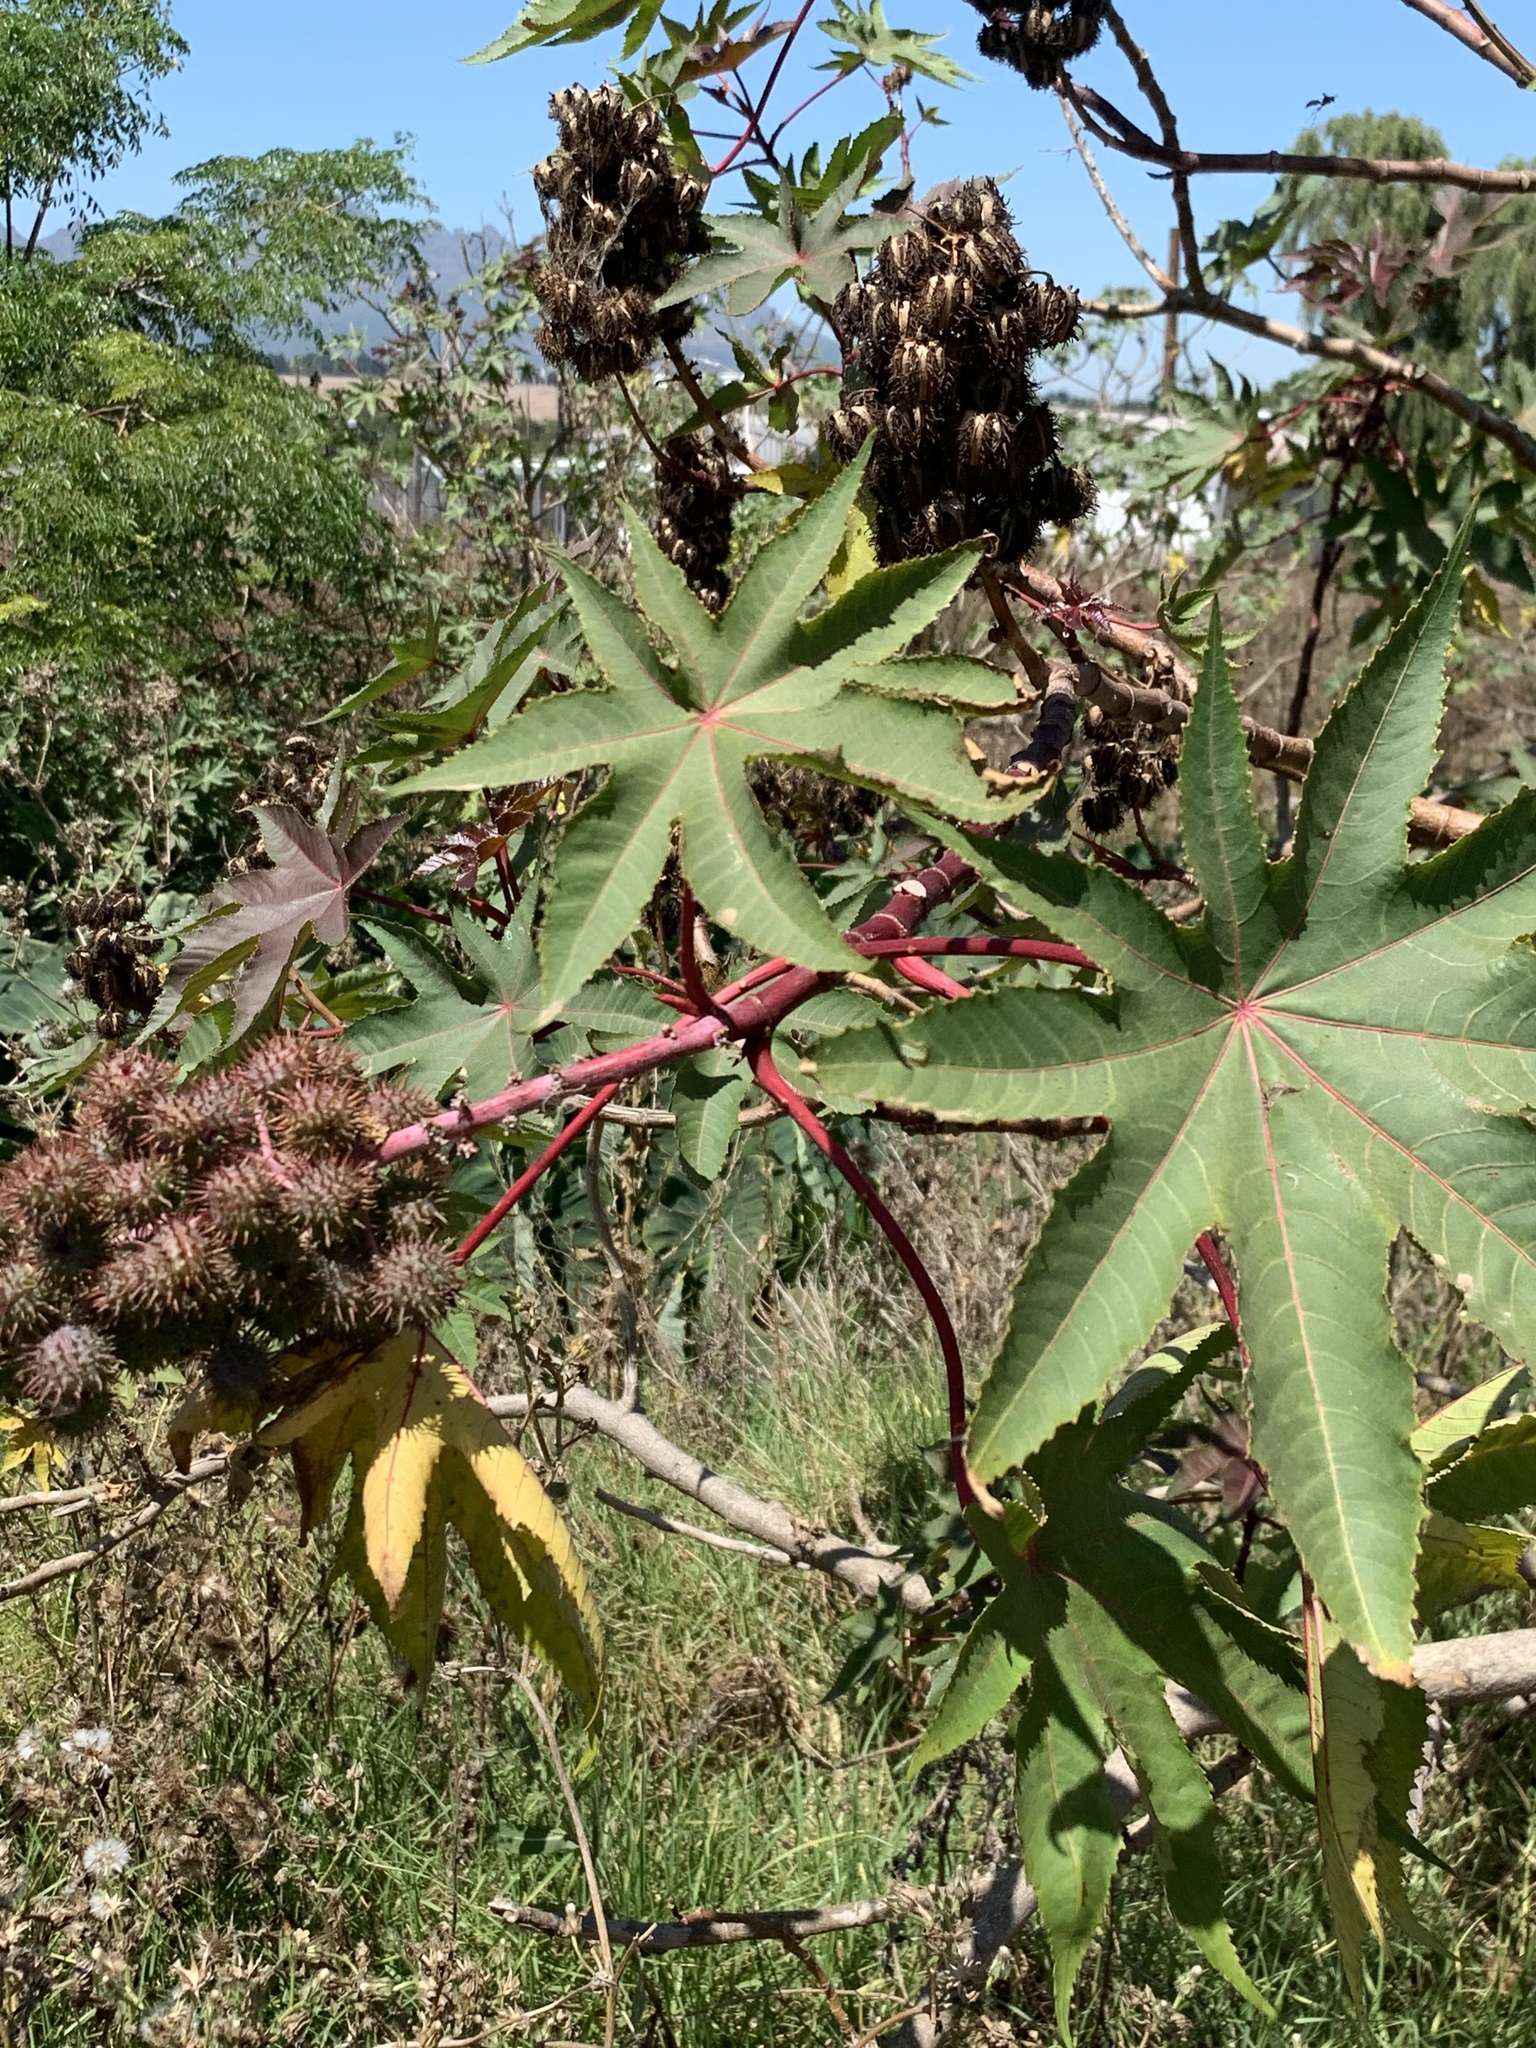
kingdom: Plantae
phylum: Tracheophyta
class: Magnoliopsida
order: Malpighiales
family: Euphorbiaceae
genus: Ricinus
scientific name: Ricinus communis
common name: Castor-oil-plant
